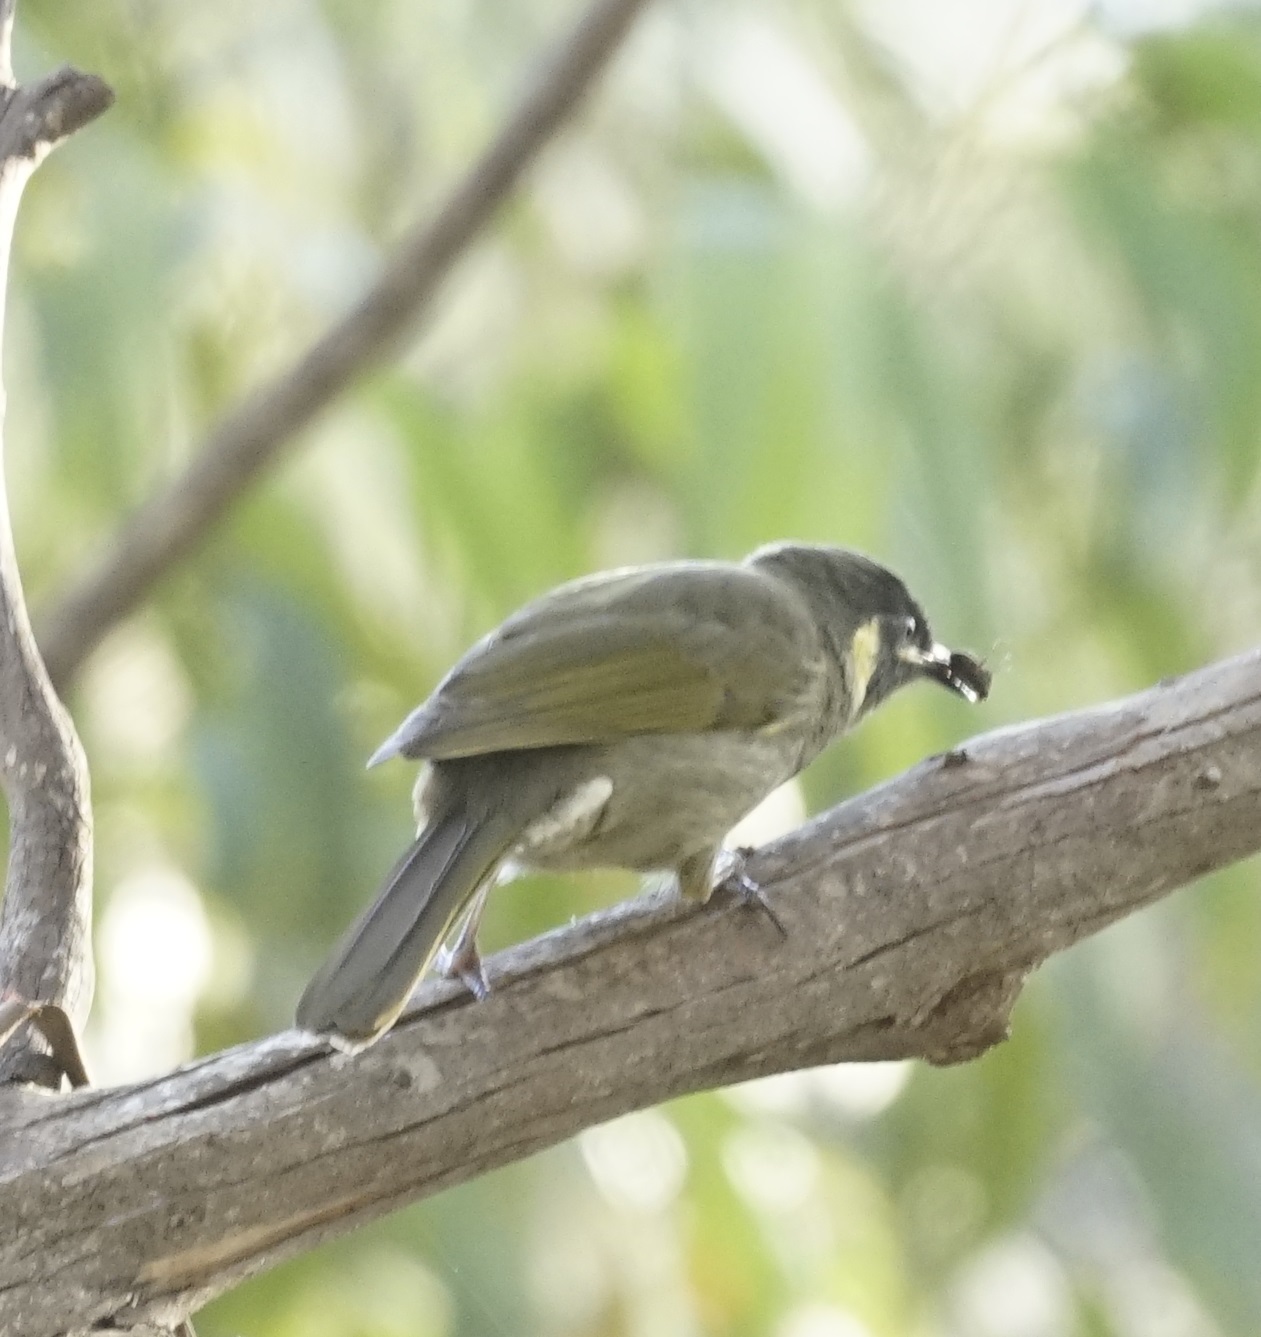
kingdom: Animalia
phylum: Chordata
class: Aves
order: Passeriformes
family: Meliphagidae
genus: Meliphaga
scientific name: Meliphaga lewinii
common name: Lewin's honeyeater
